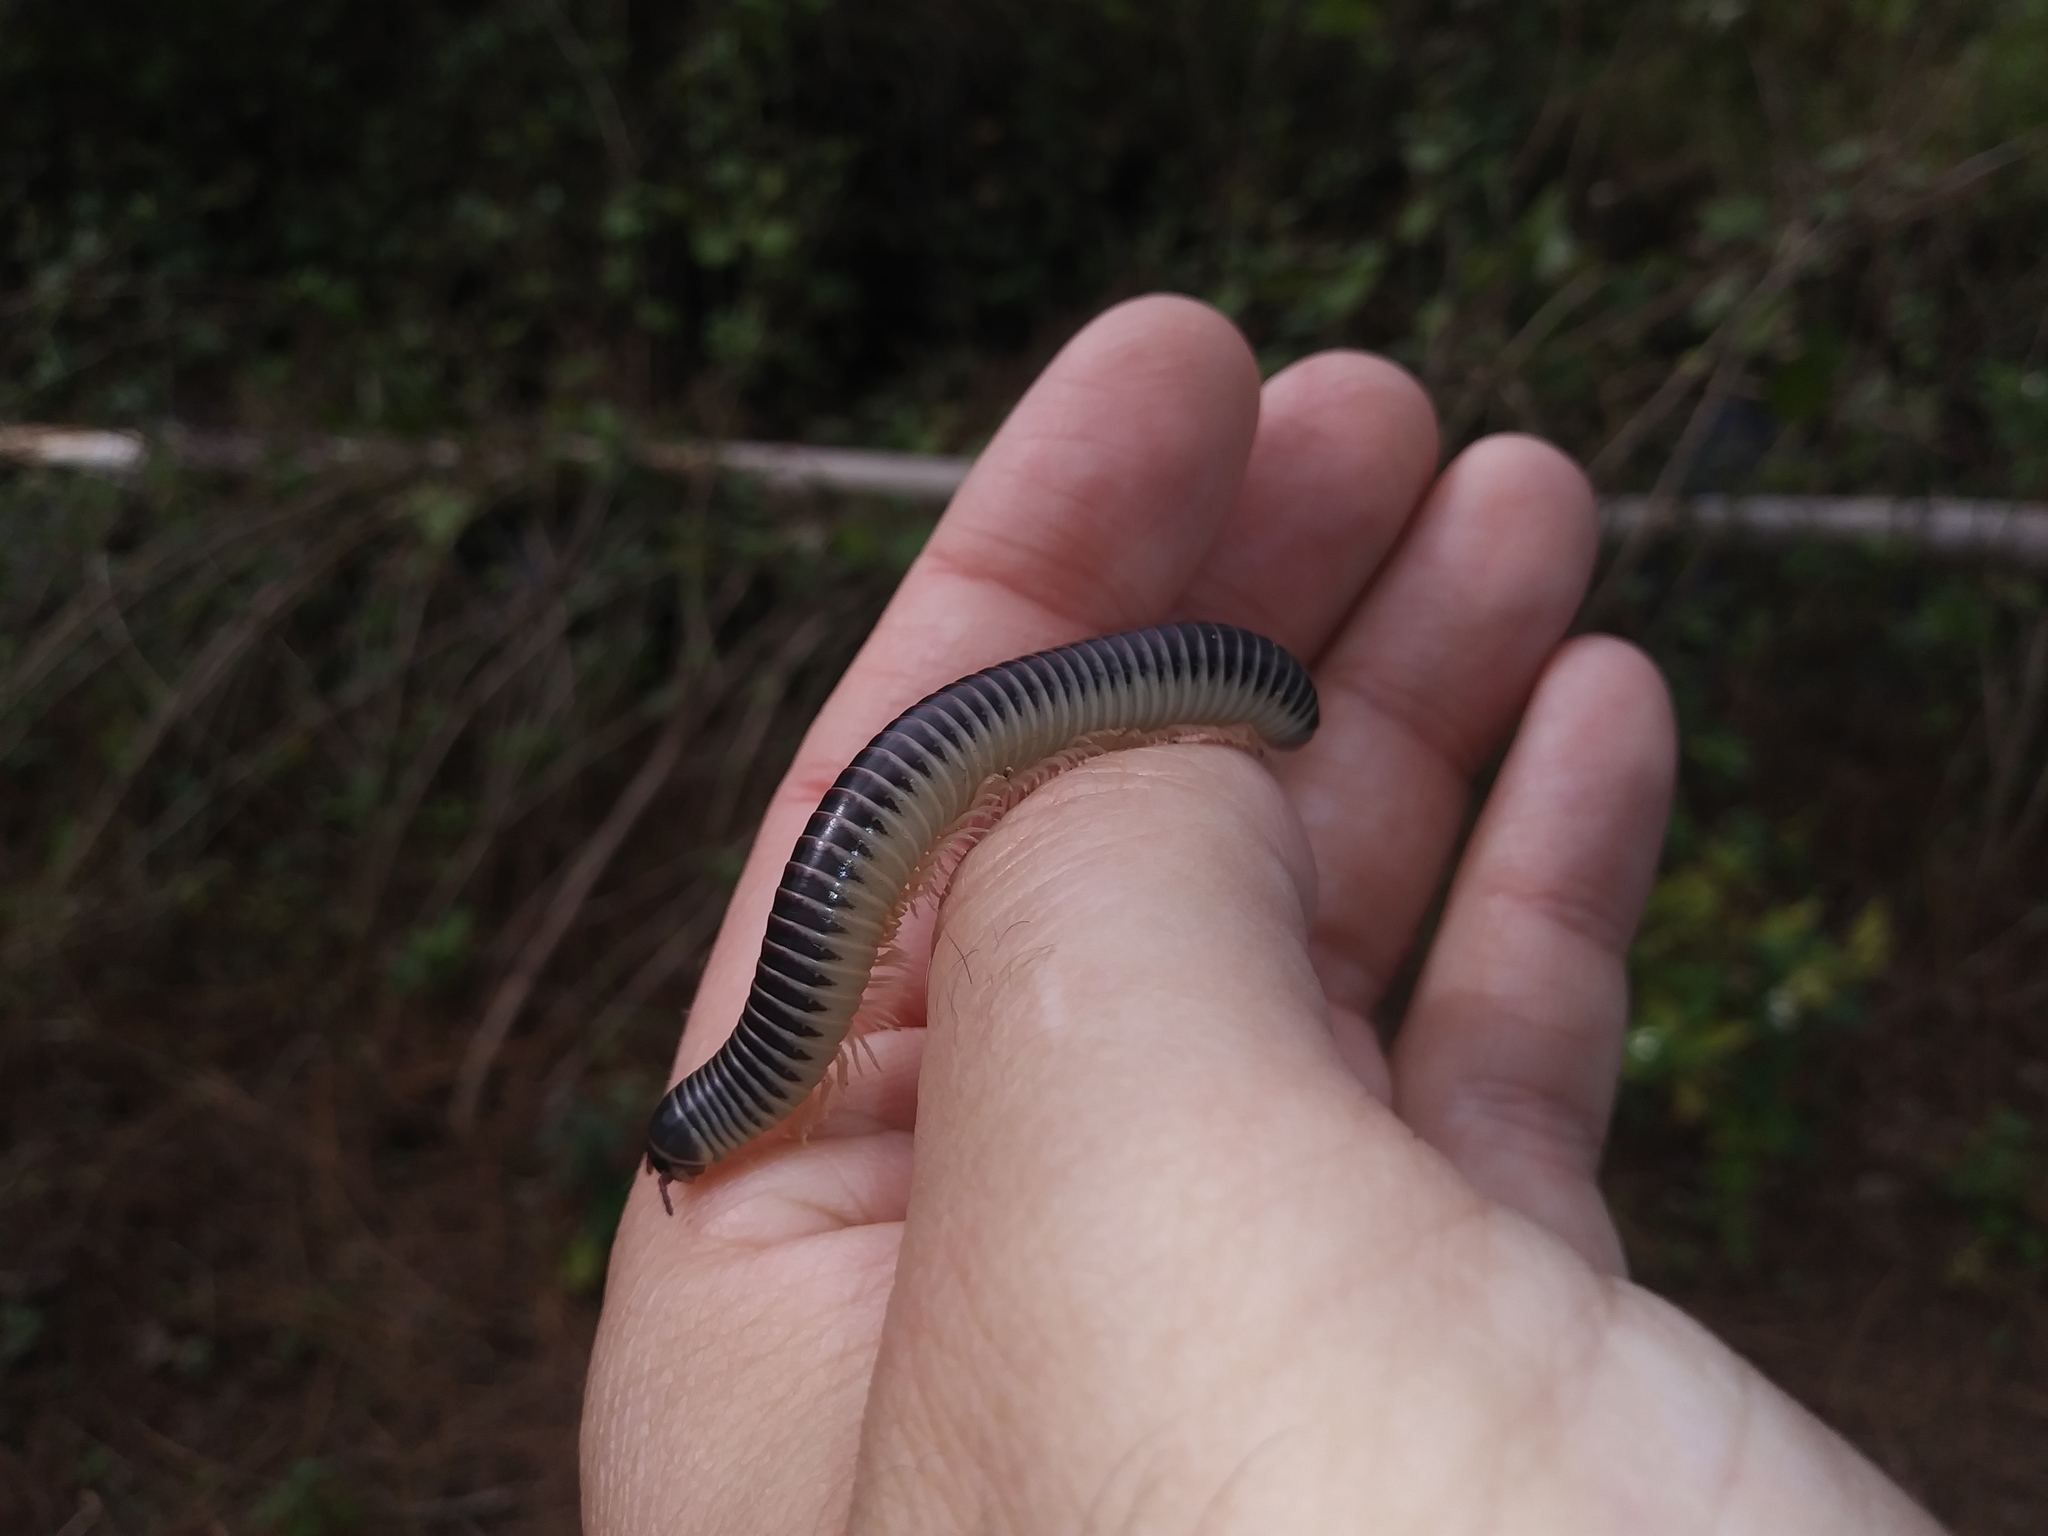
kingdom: Animalia
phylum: Arthropoda
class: Diplopoda
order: Spirobolida
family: Spirobolidae
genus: Chicobolus
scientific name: Chicobolus spinigerus
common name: Florida ivory millipede
